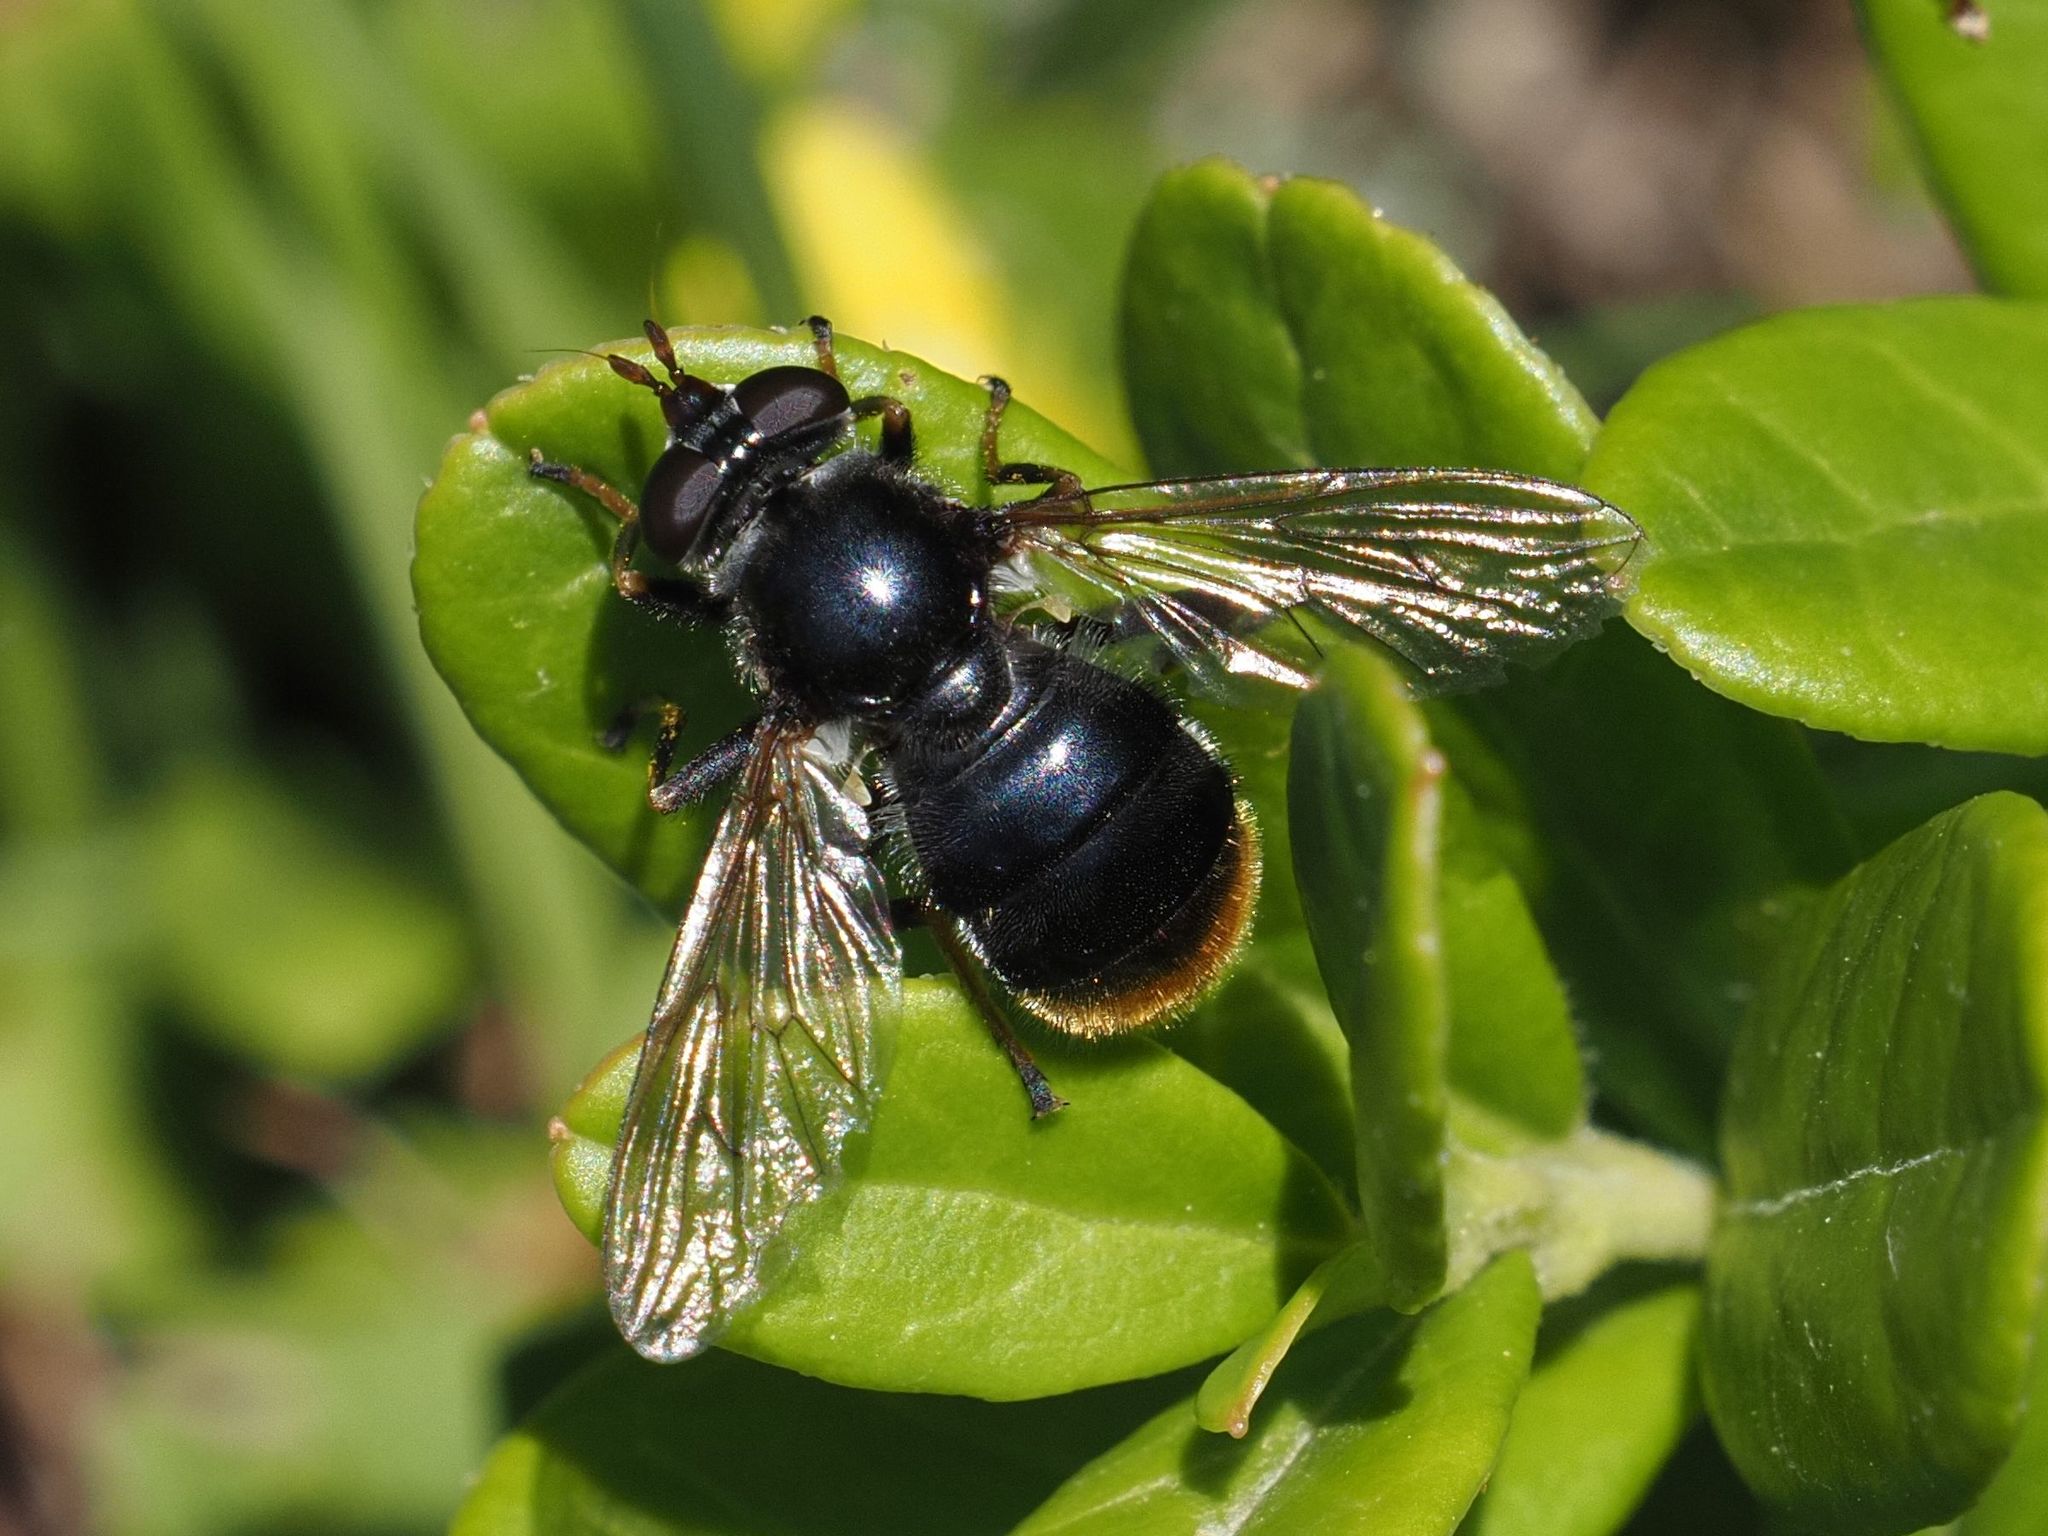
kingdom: Animalia
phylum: Arthropoda
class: Insecta
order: Diptera
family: Syrphidae
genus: Blera
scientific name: Blera fallax
